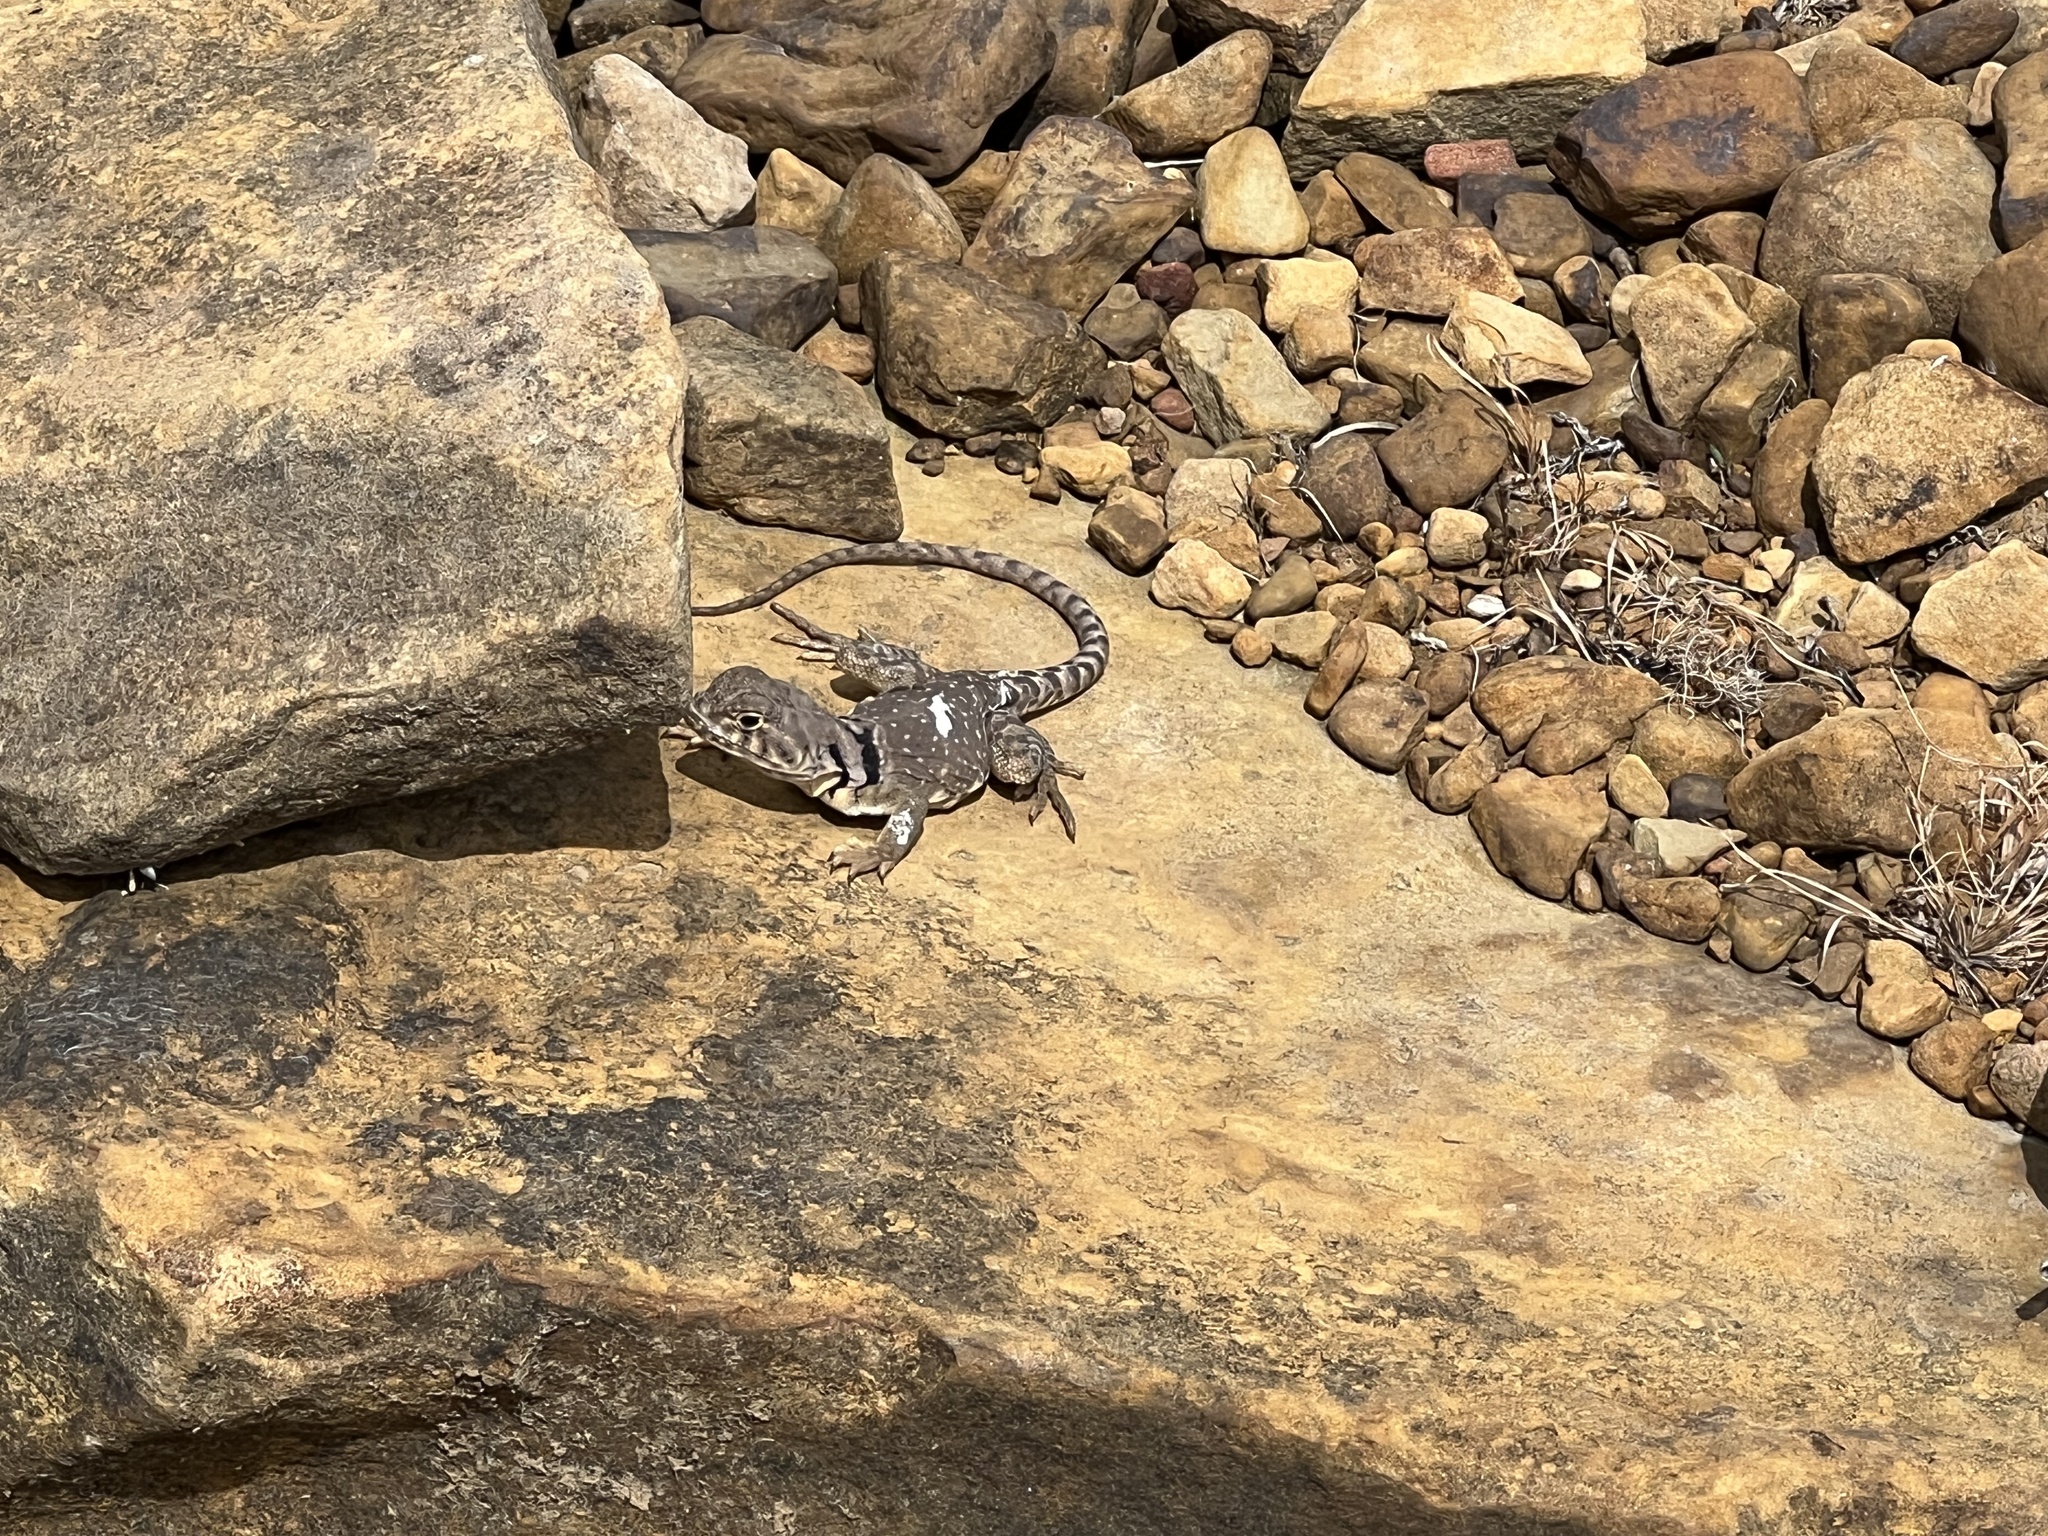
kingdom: Animalia
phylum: Chordata
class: Squamata
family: Crotaphytidae
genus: Crotaphytus
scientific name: Crotaphytus collaris
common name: Collared lizard
